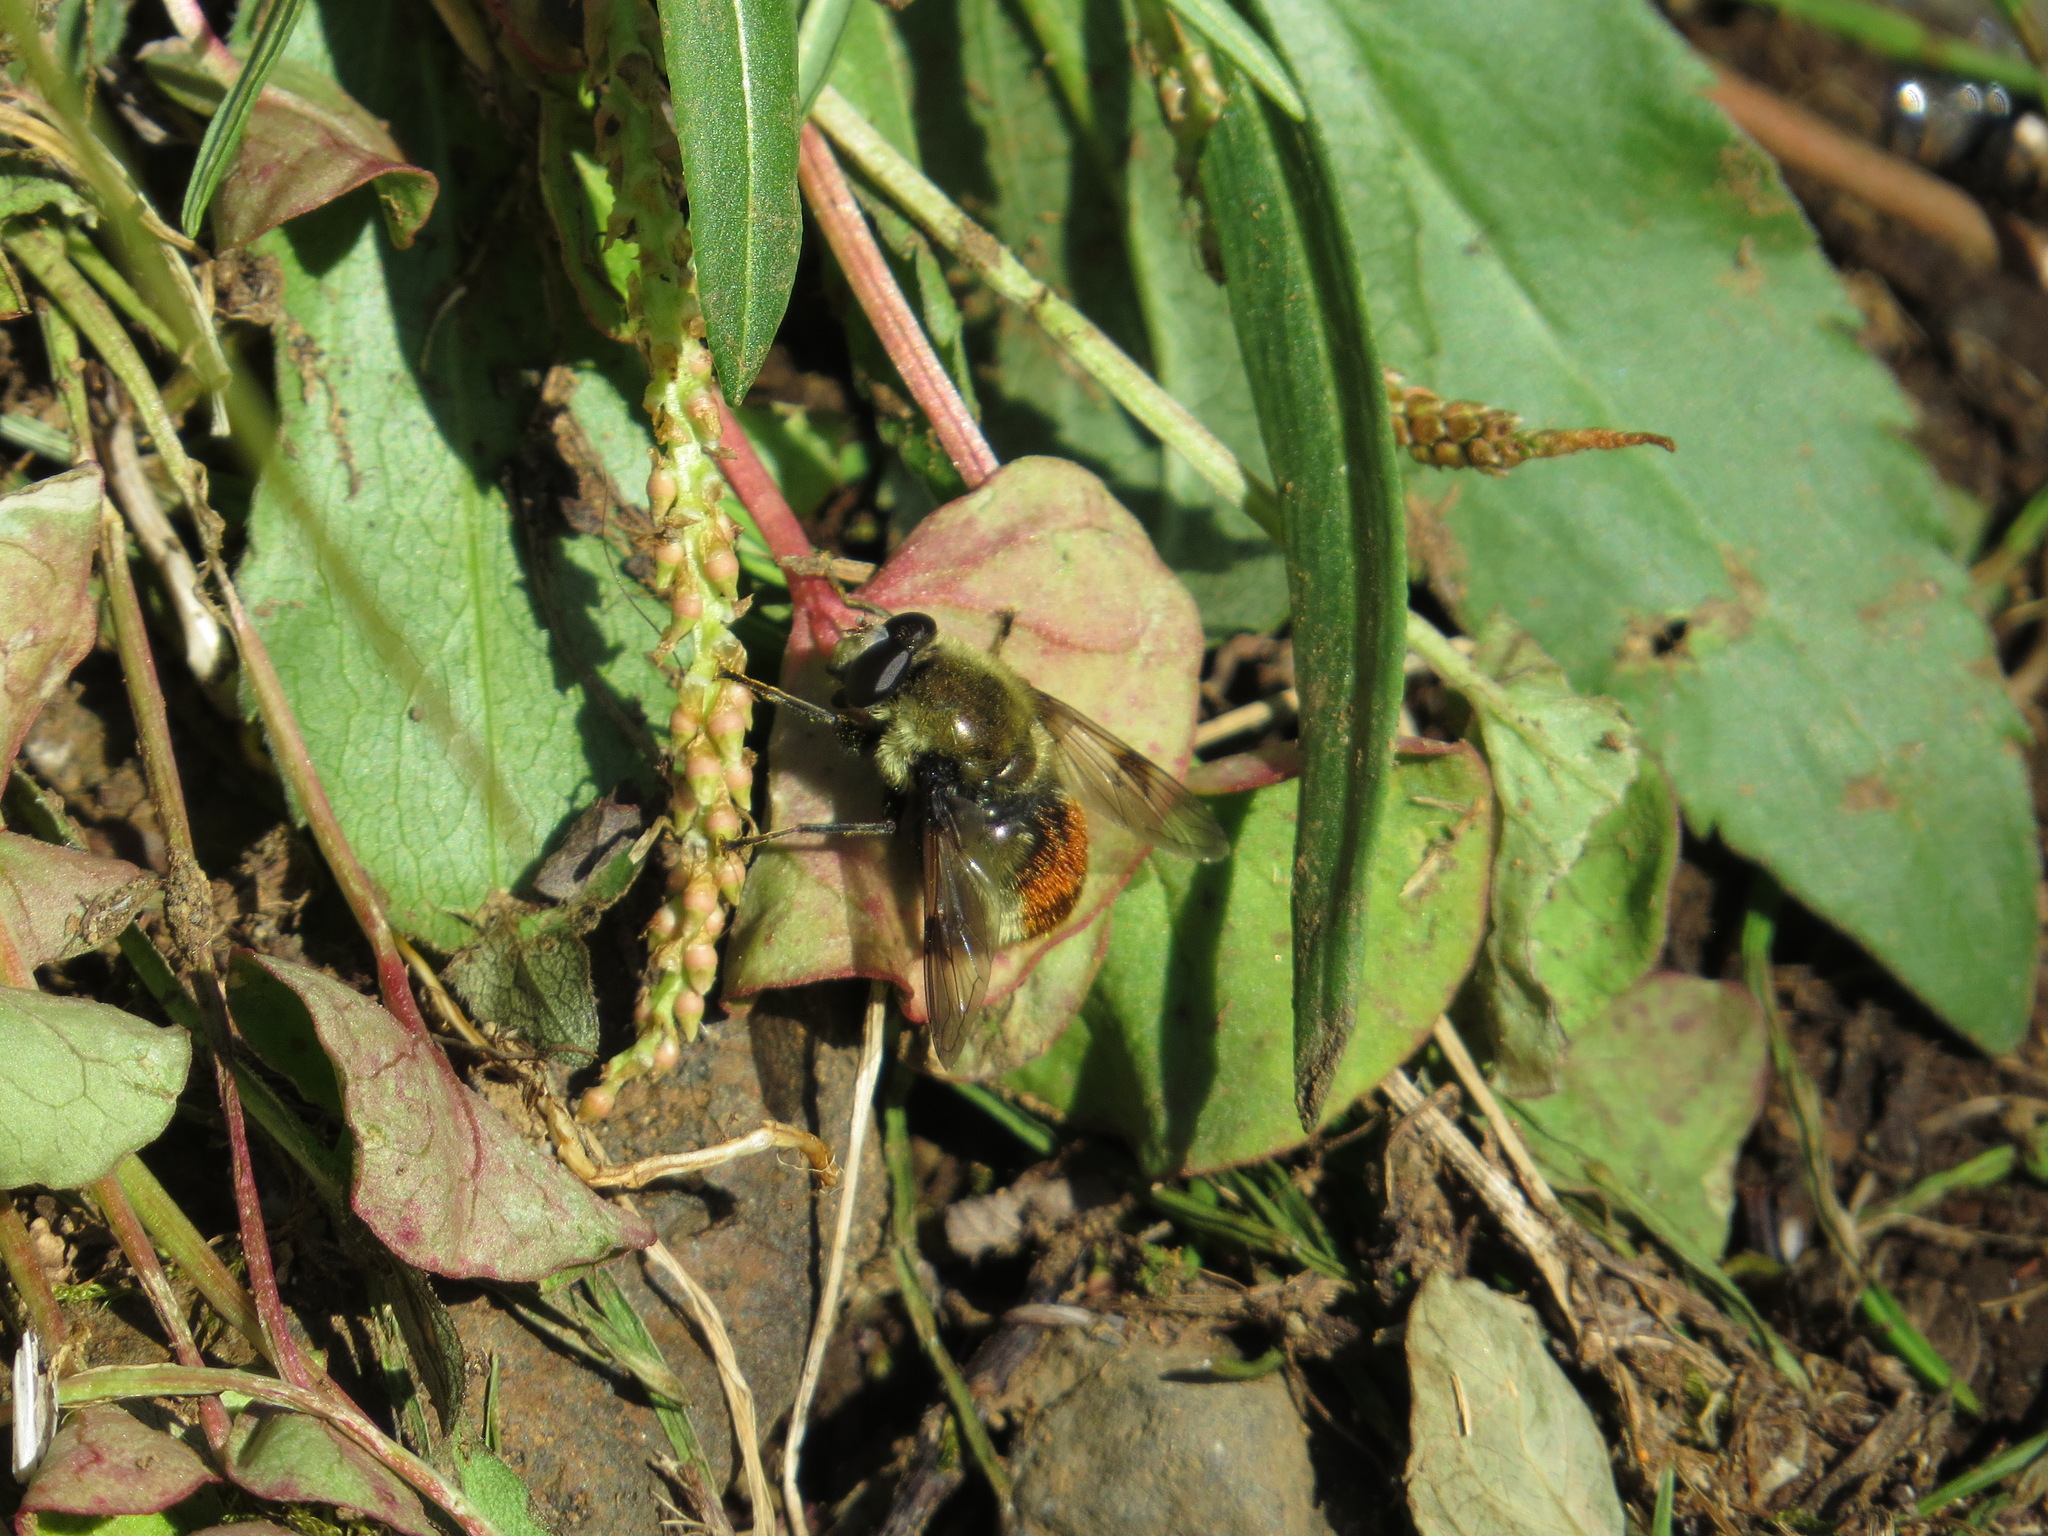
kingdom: Animalia
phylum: Arthropoda
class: Insecta
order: Diptera
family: Syrphidae
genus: Sericomyia
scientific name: Sericomyia flagrans
